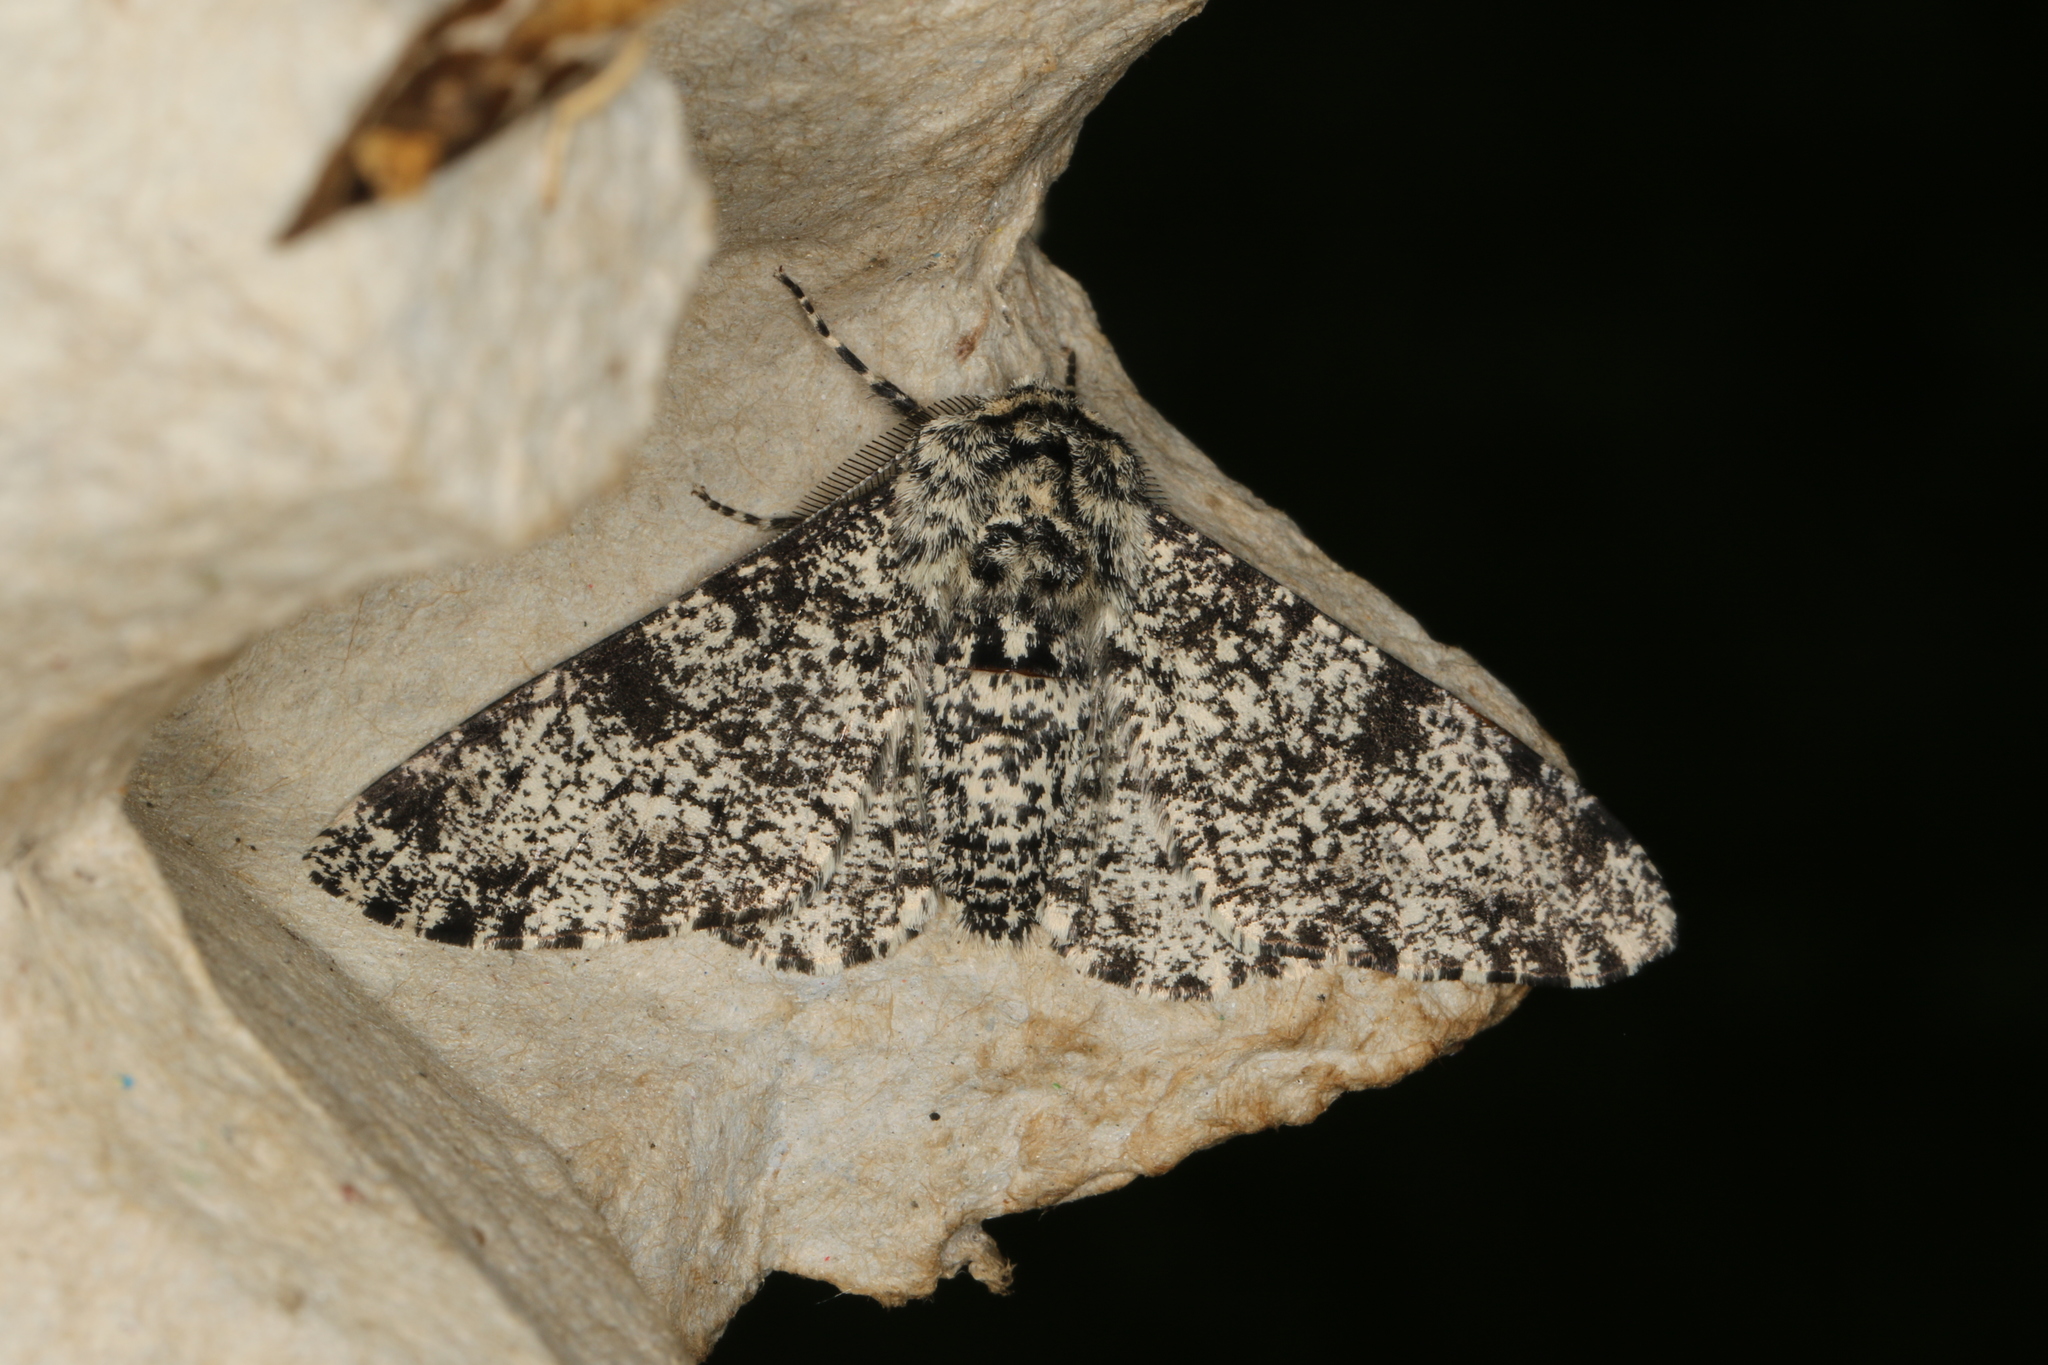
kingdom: Animalia
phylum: Arthropoda
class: Insecta
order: Lepidoptera
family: Geometridae
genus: Biston
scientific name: Biston betularia
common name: Peppered moth
